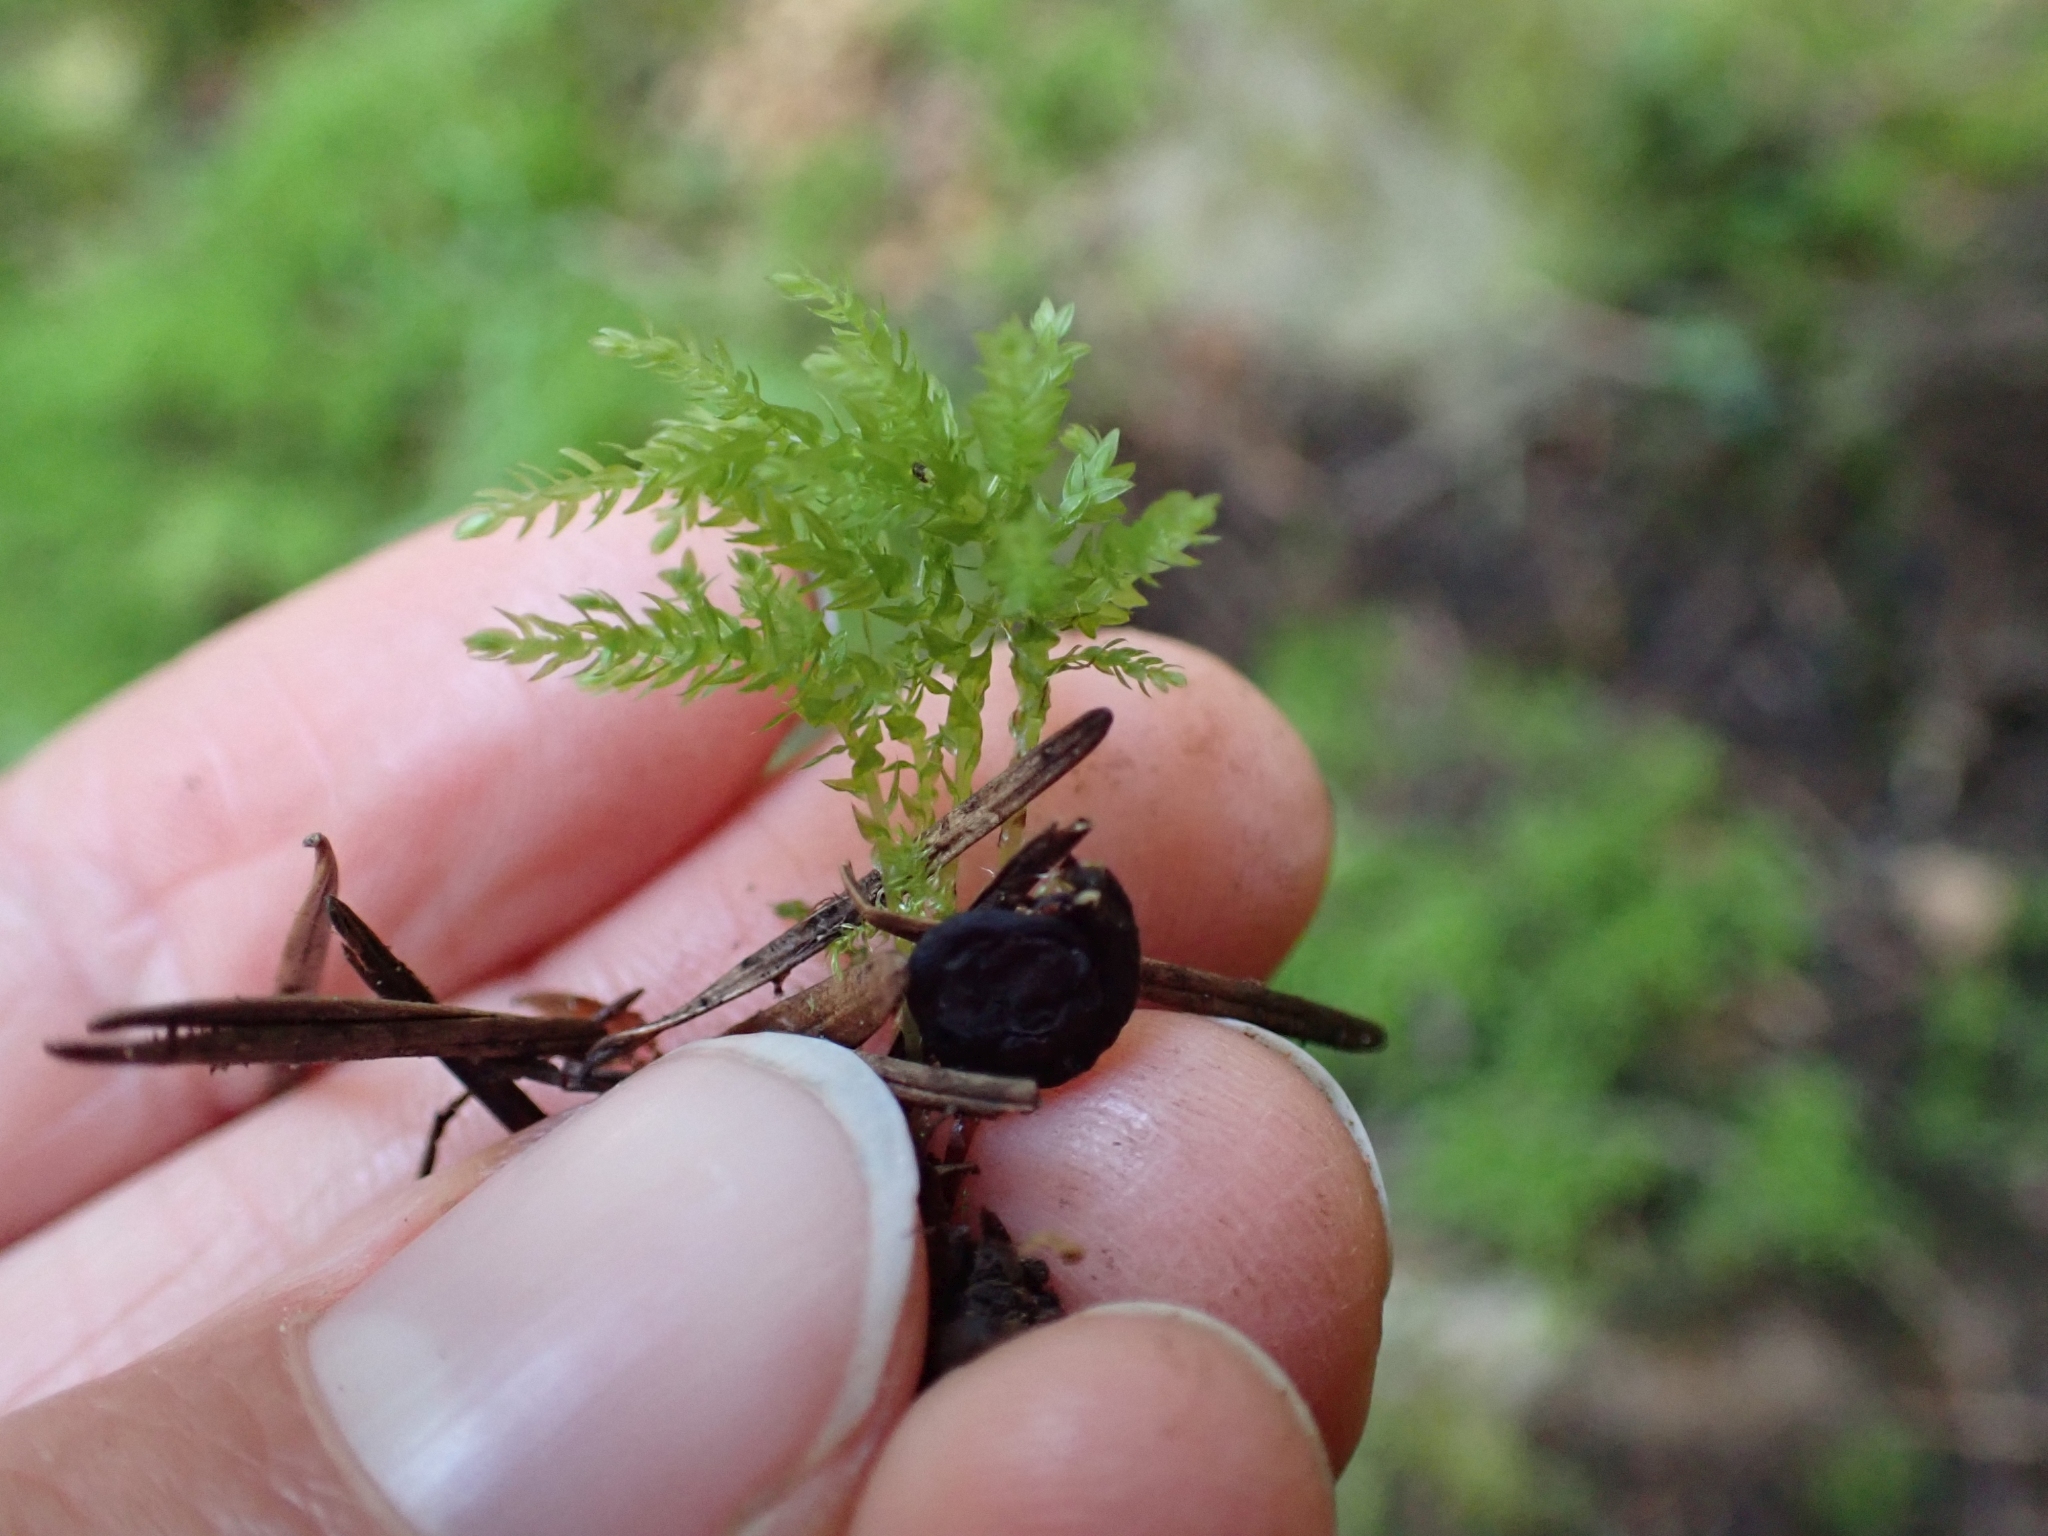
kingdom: Plantae
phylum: Bryophyta
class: Bryopsida
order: Bryales
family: Mniaceae
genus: Leucolepis
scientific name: Leucolepis acanthoneura
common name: Leucolepis umbrella moss
